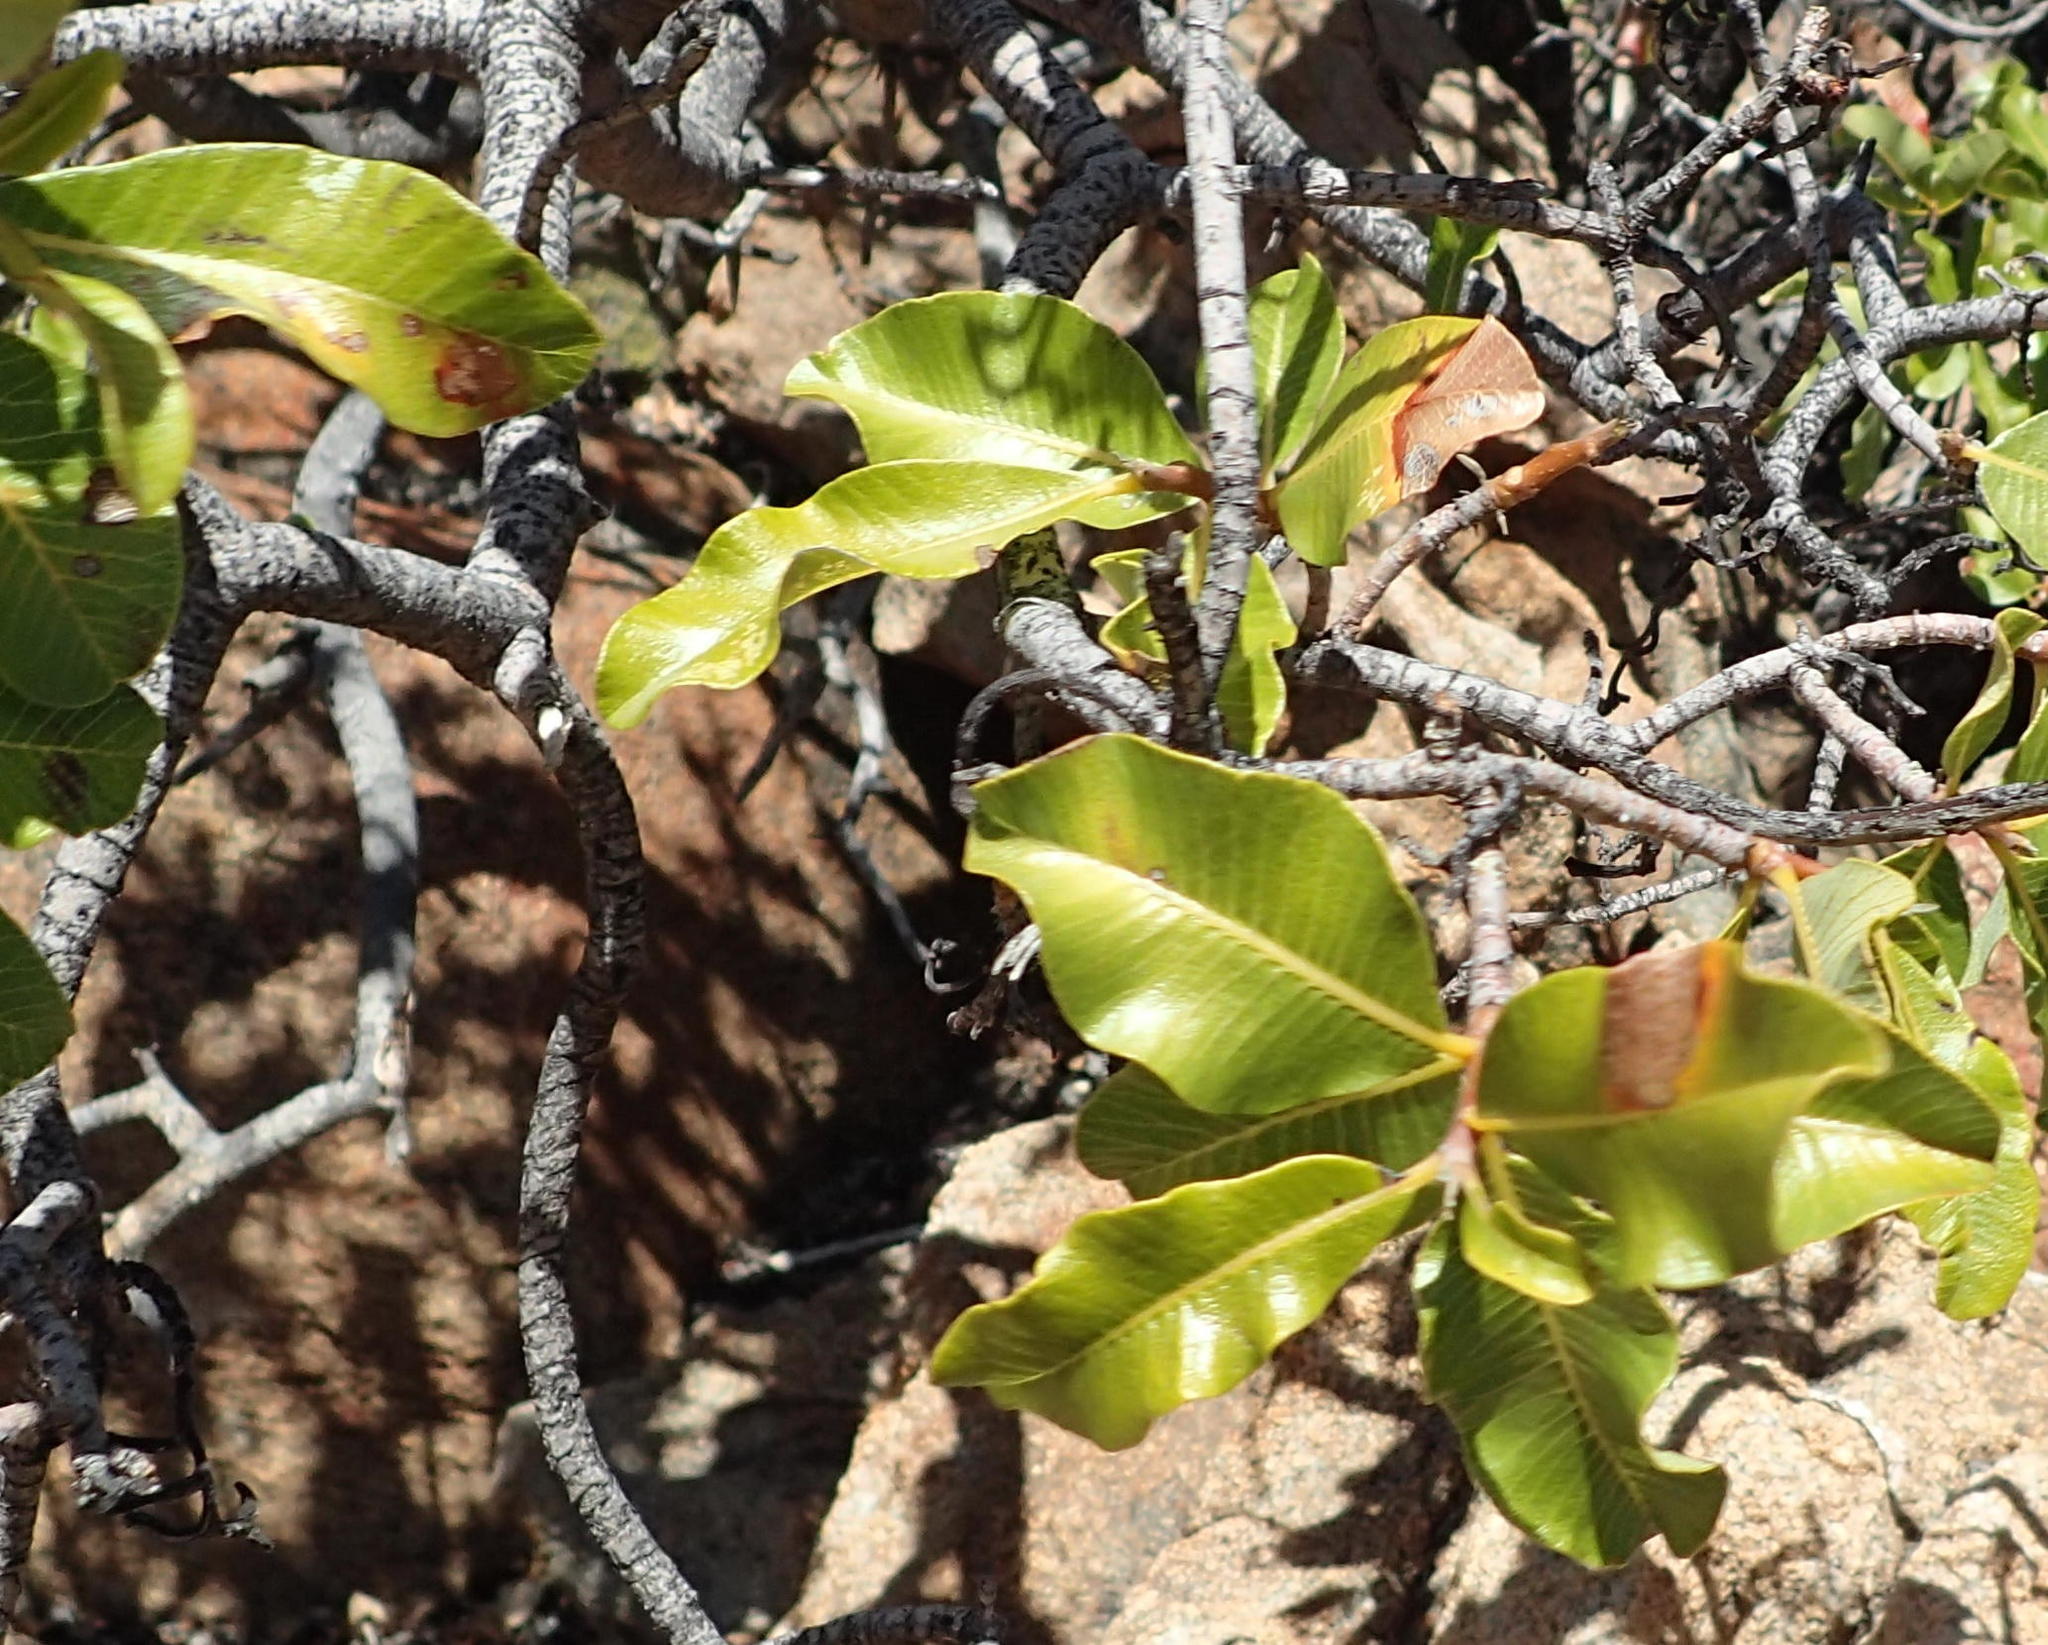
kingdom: Plantae
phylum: Tracheophyta
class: Magnoliopsida
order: Sapindales
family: Anacardiaceae
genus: Ozoroa
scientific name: Ozoroa dispar
